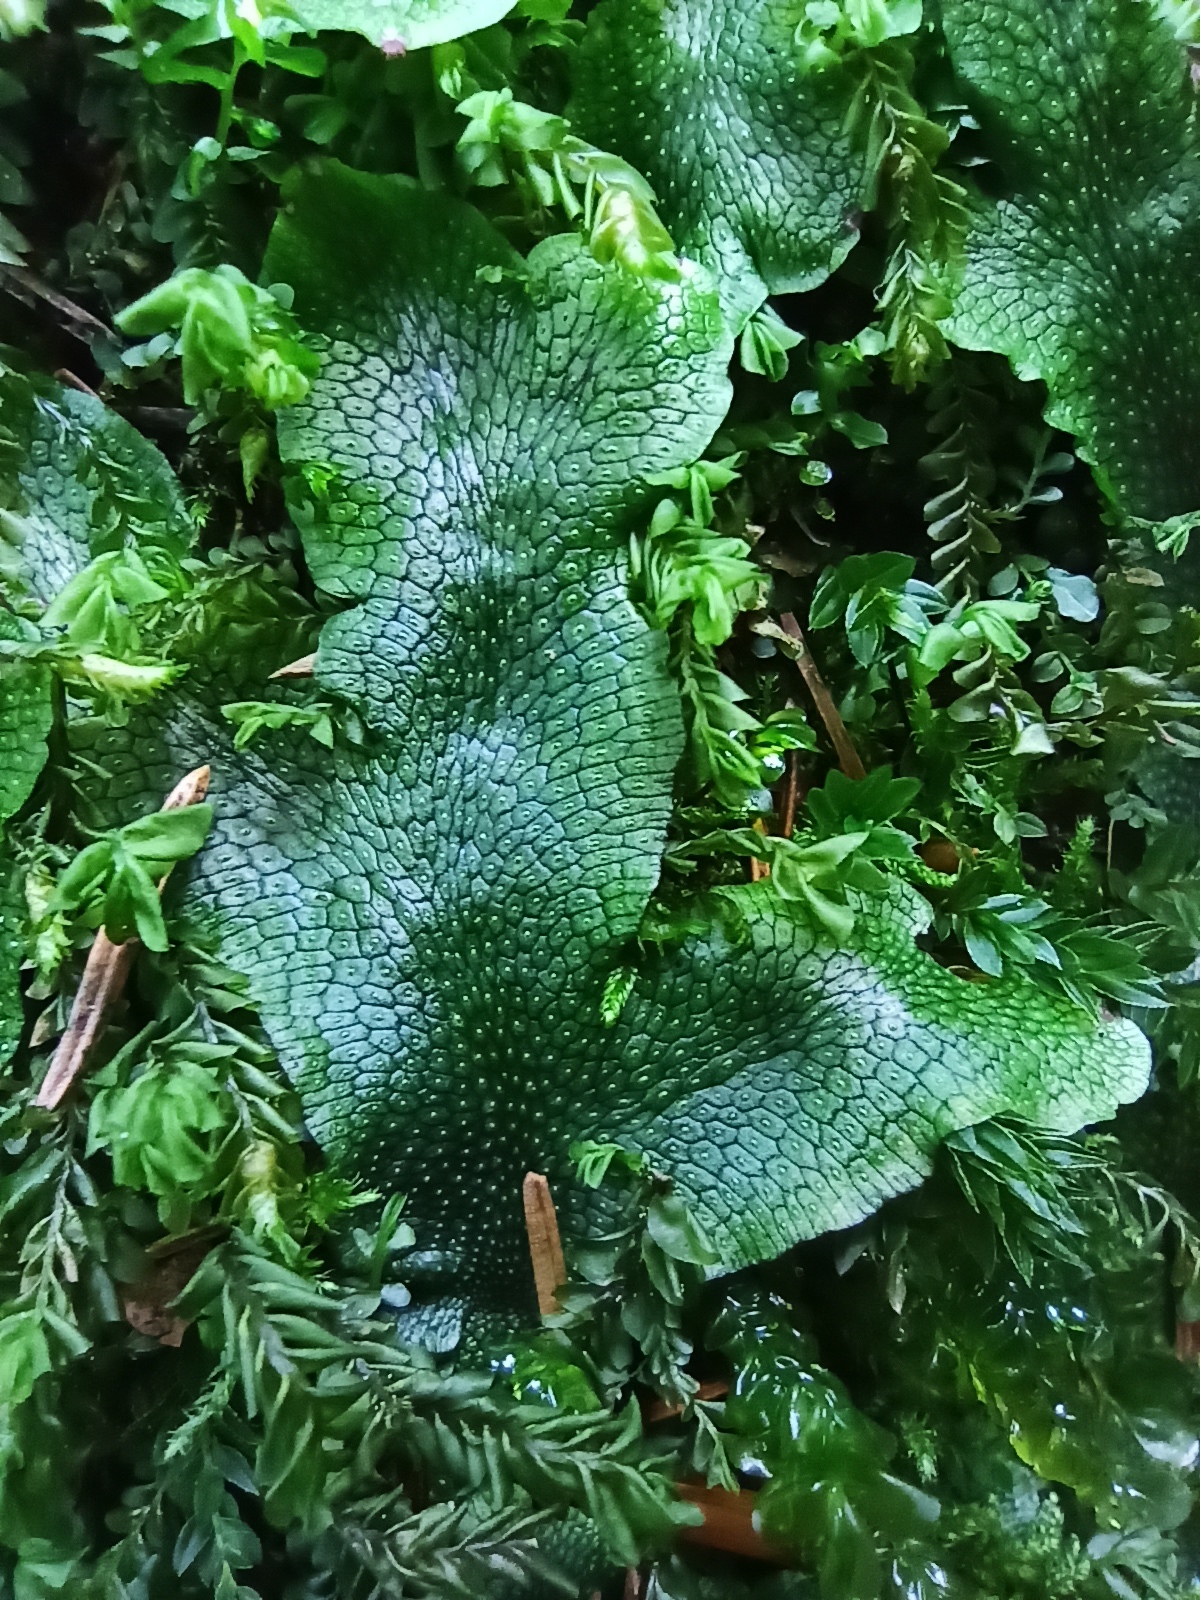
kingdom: Plantae
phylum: Marchantiophyta
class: Marchantiopsida
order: Marchantiales
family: Conocephalaceae
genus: Conocephalum
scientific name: Conocephalum salebrosum
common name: Cat-tongue liverwort
